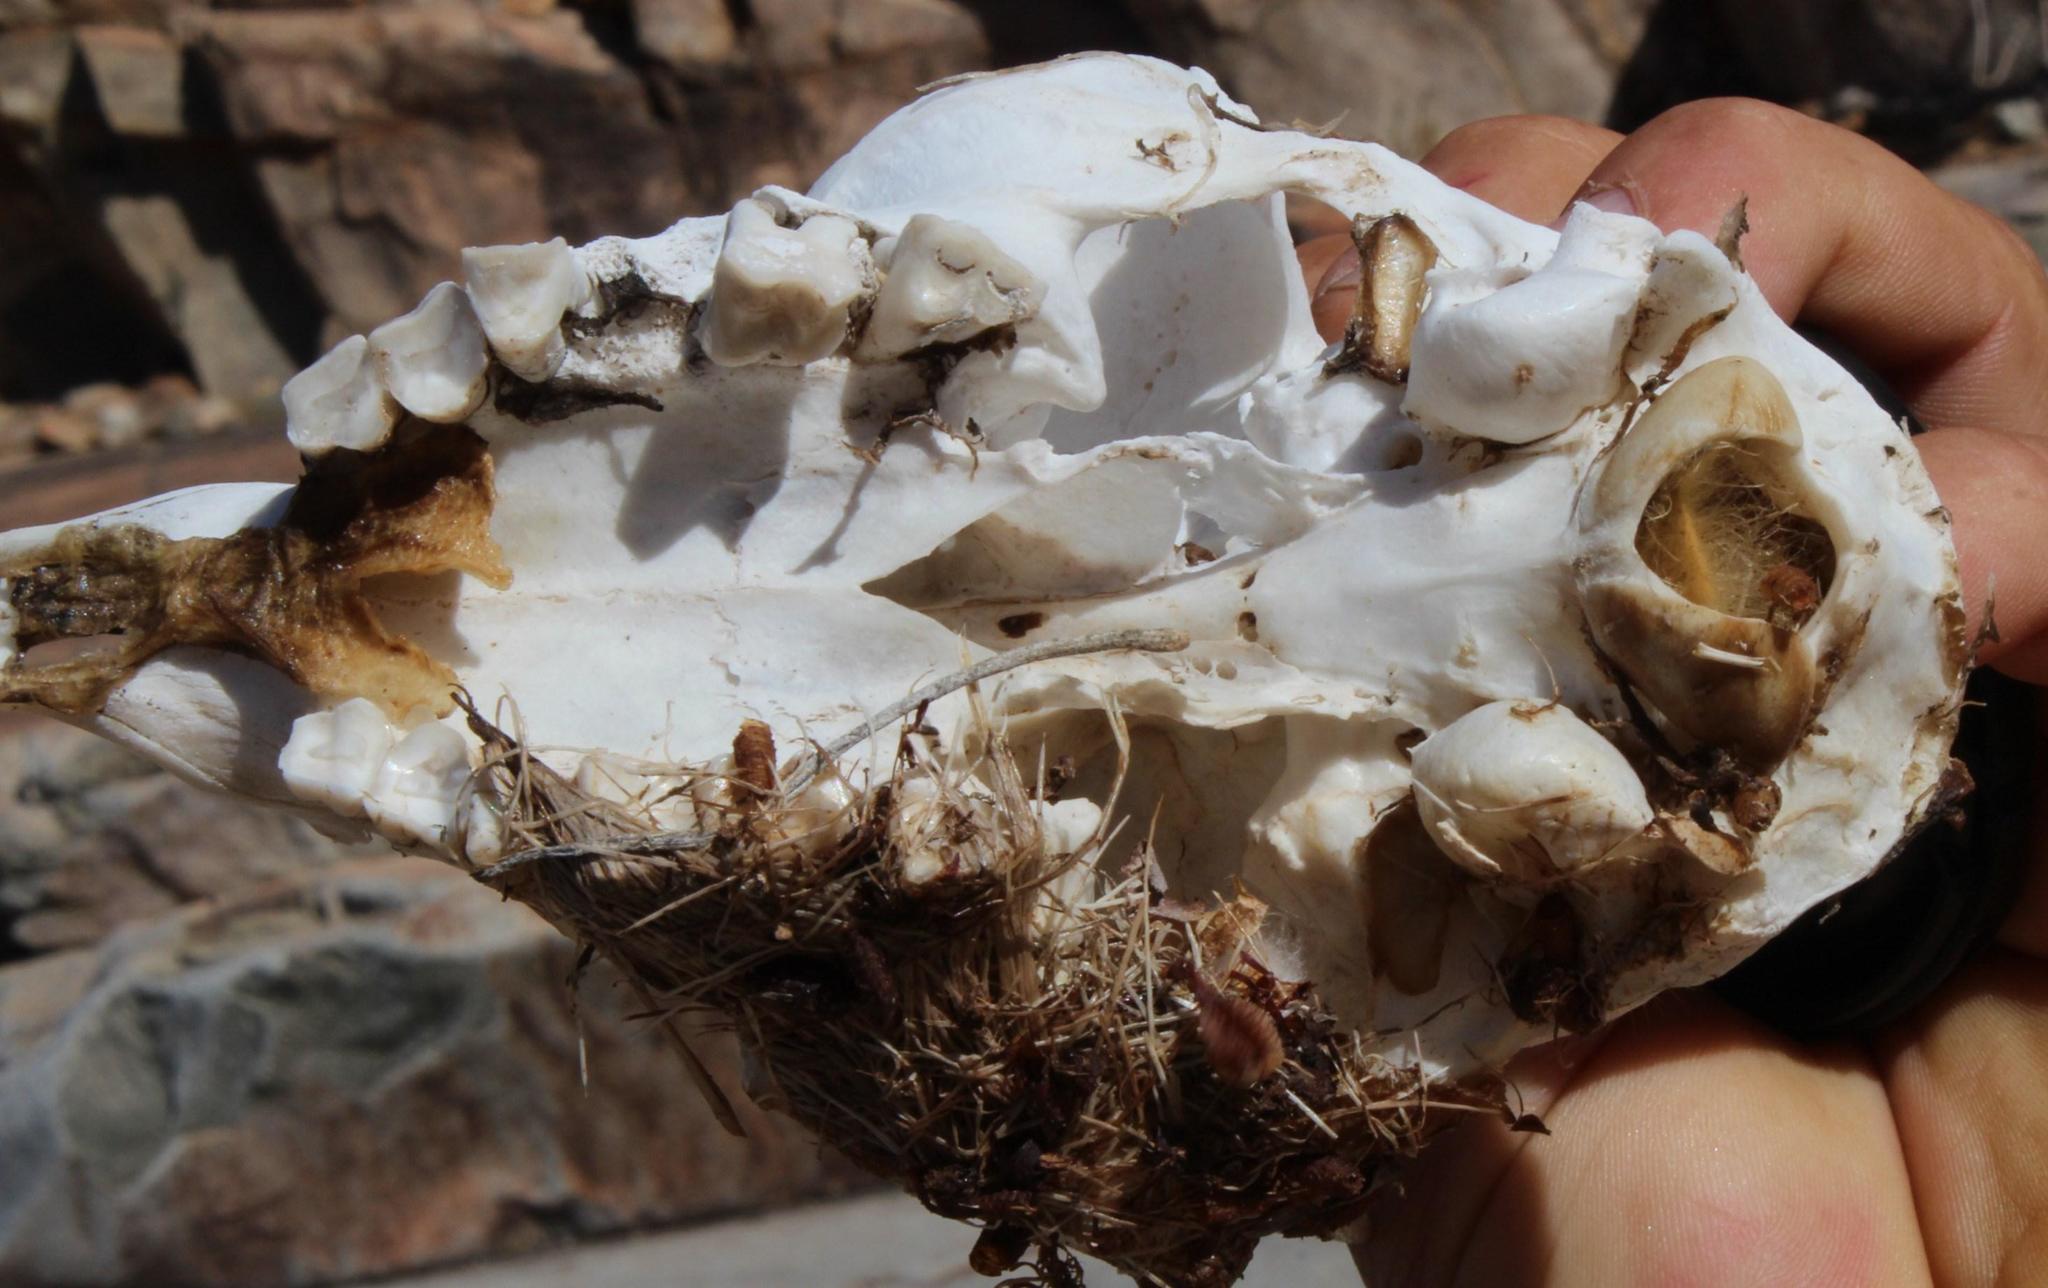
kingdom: Animalia
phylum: Chordata
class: Mammalia
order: Artiodactyla
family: Bovidae
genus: Oreotragus
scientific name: Oreotragus oreotragus
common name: Klipspringer
